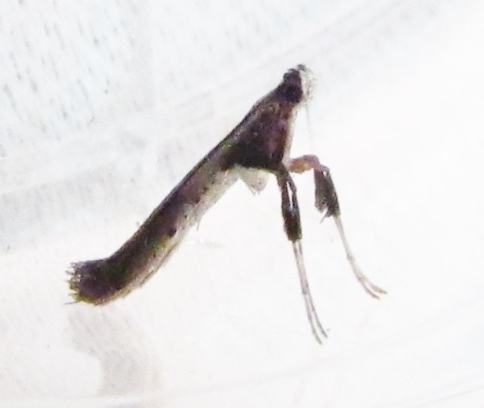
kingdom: Animalia
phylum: Arthropoda
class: Insecta
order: Lepidoptera
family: Gracillariidae
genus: Caloptilia
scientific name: Caloptilia rhoifoliella
